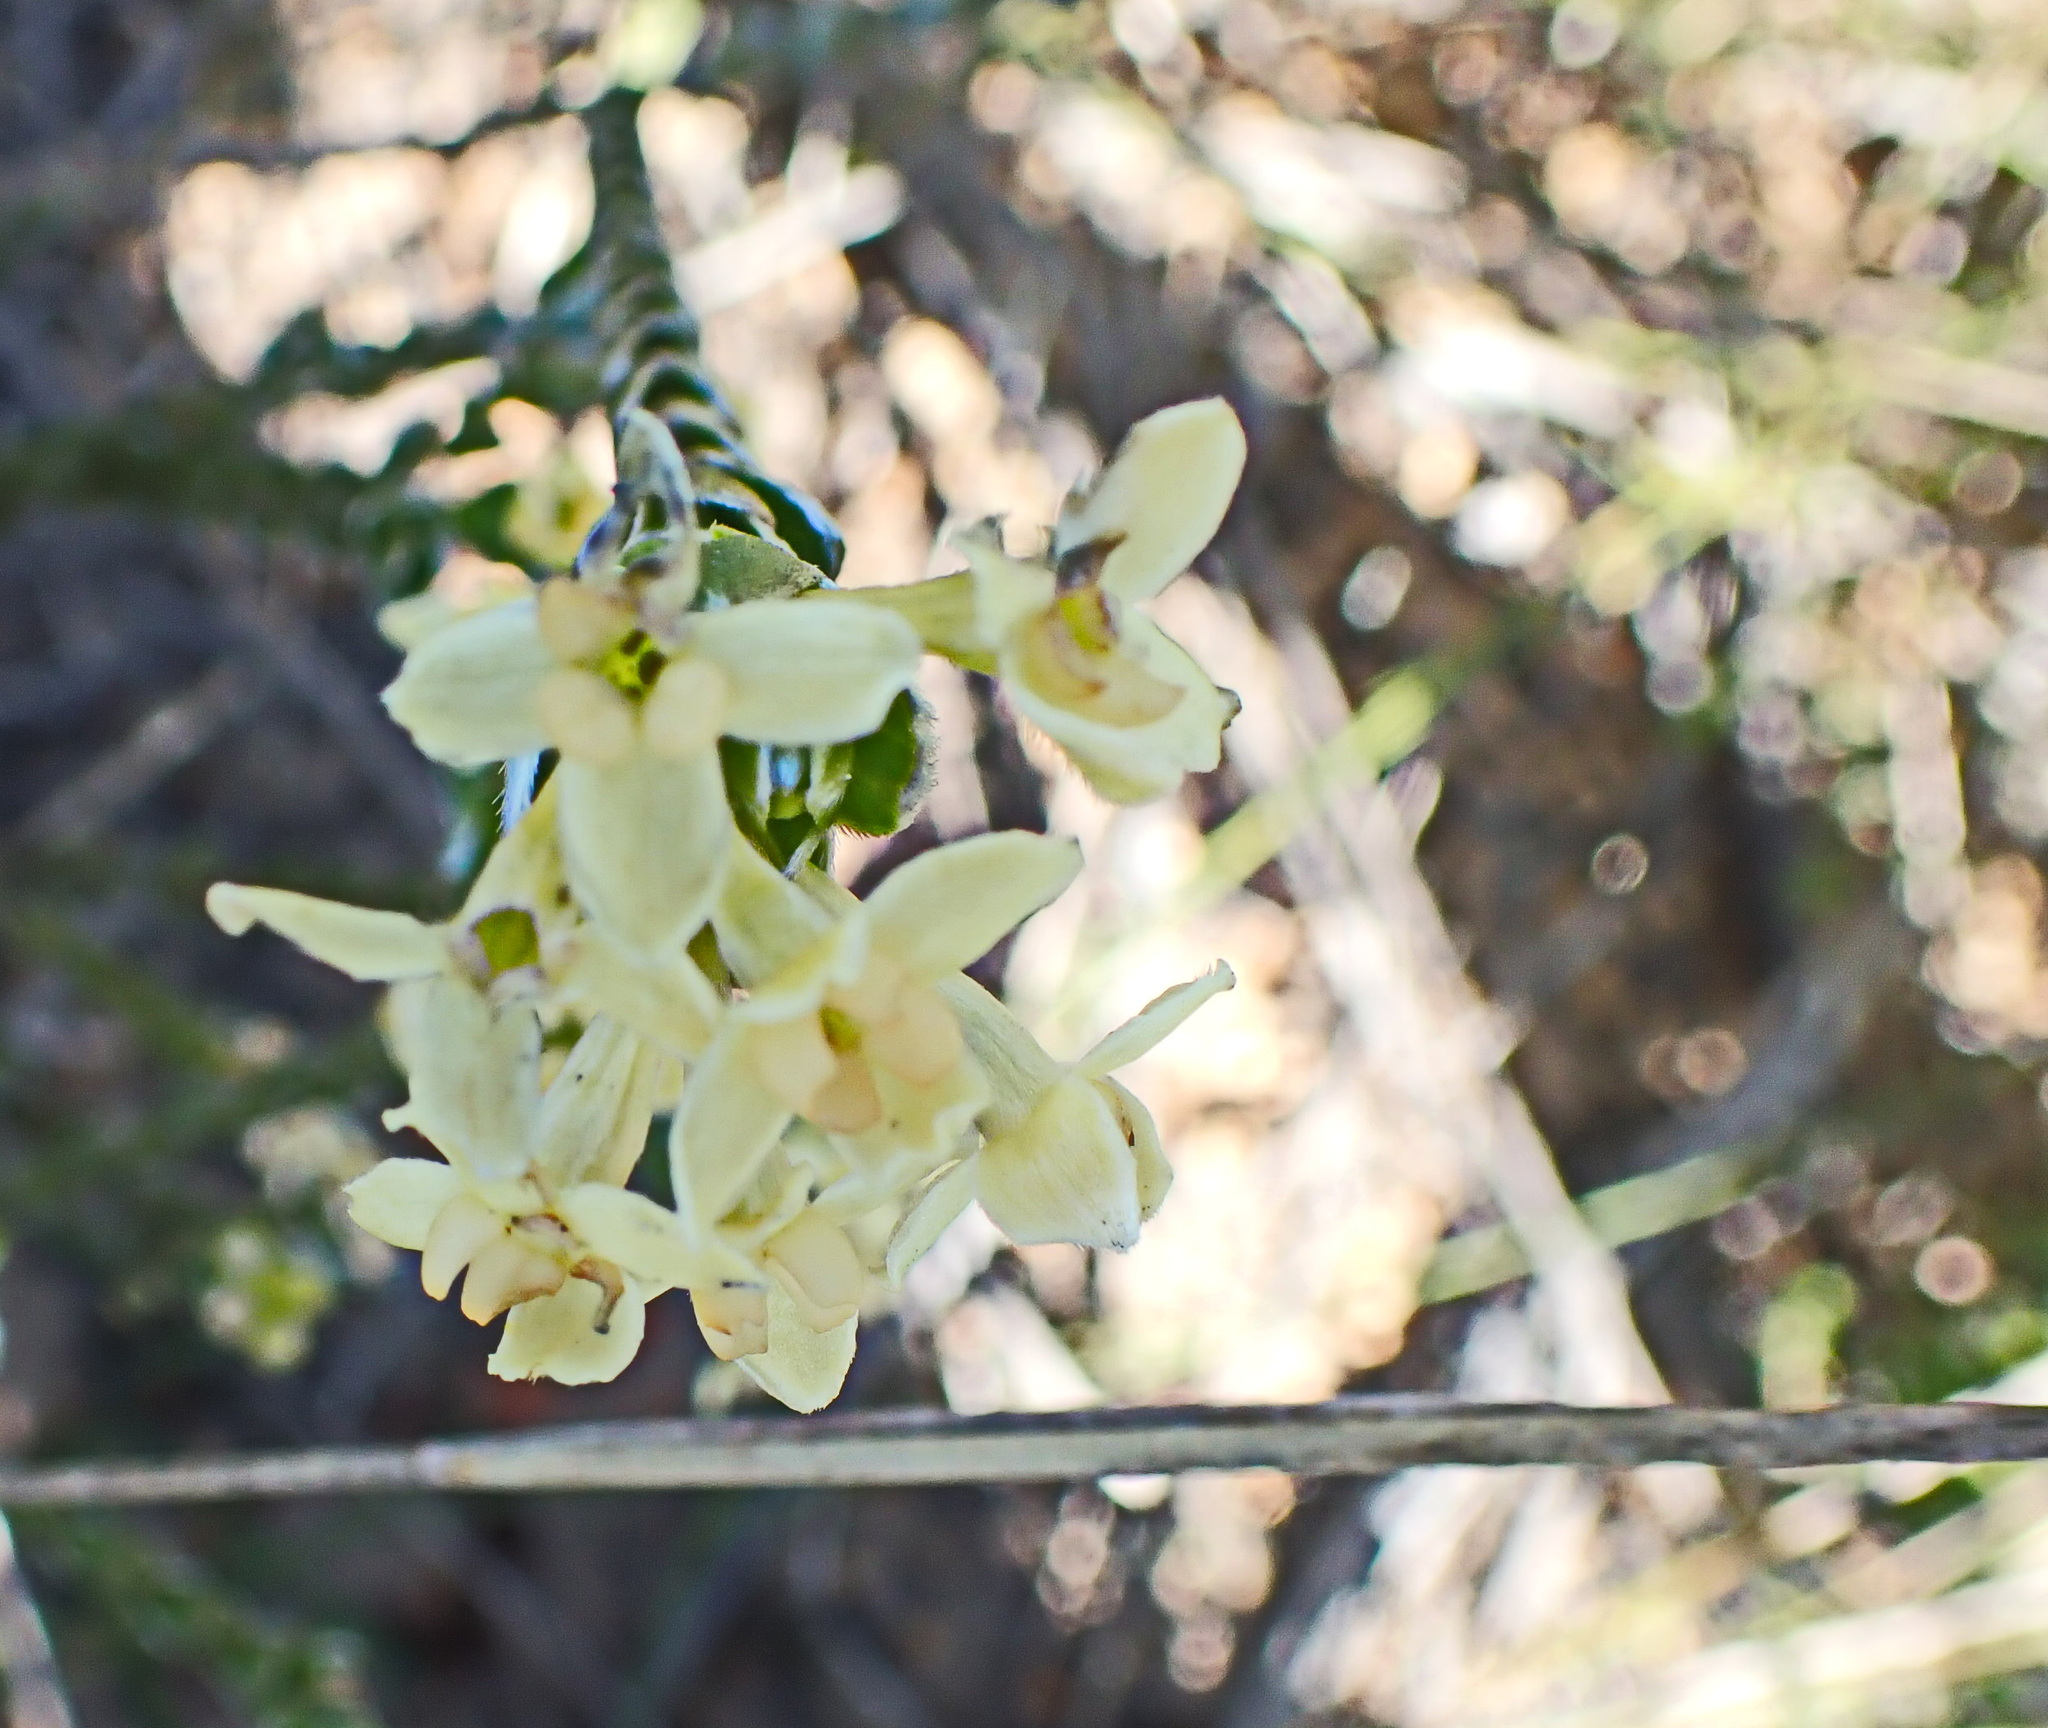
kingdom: Plantae
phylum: Tracheophyta
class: Magnoliopsida
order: Malvales
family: Thymelaeaceae
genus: Gnidia
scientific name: Gnidia chrysophylla
